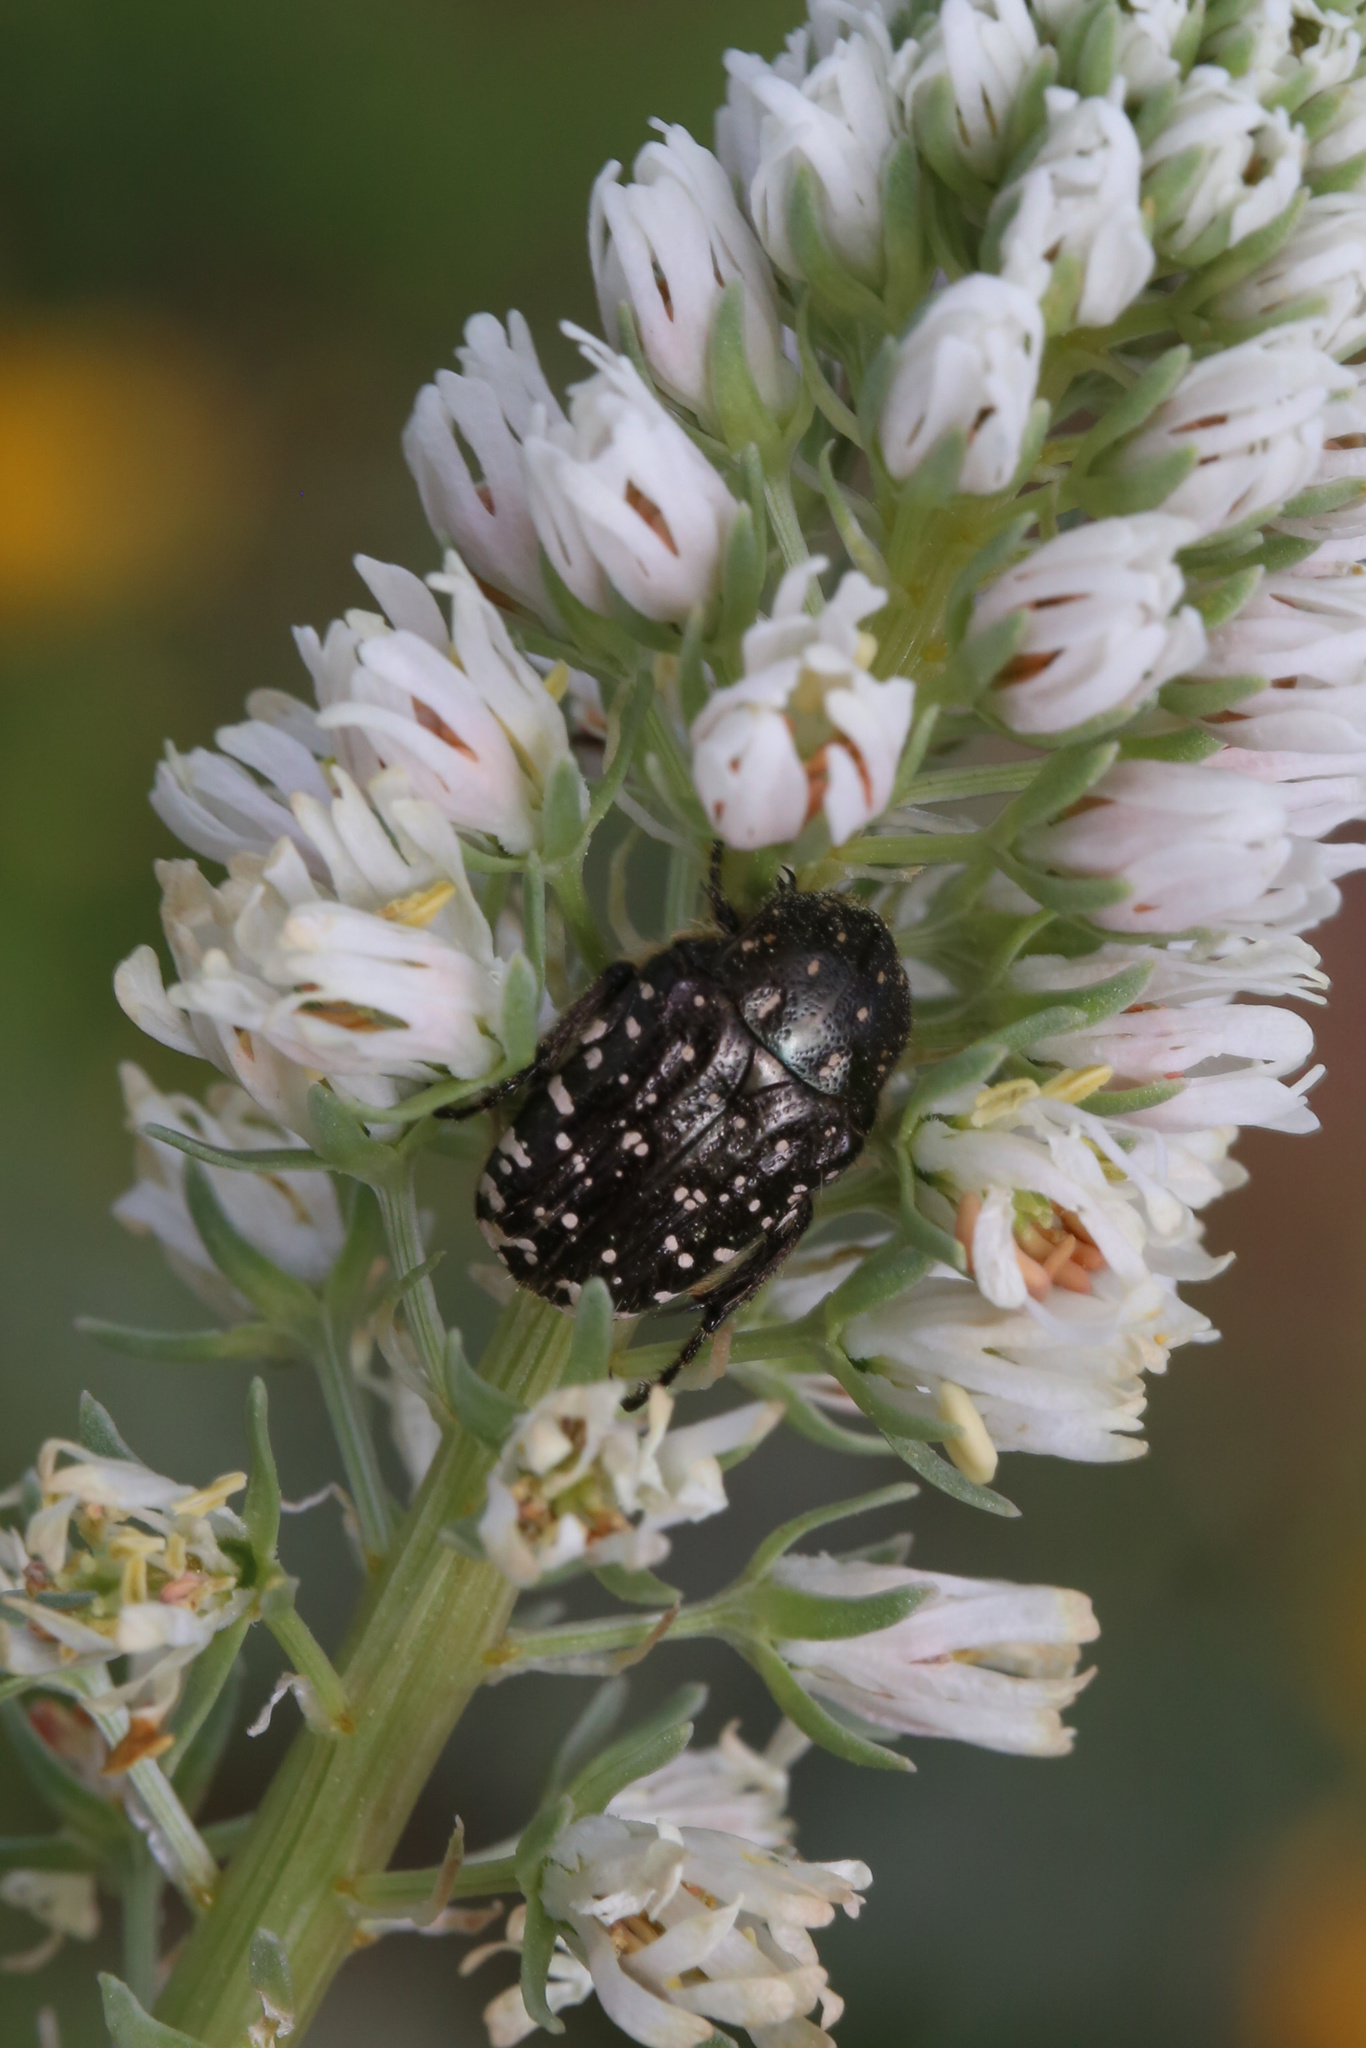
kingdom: Animalia
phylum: Arthropoda
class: Insecta
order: Coleoptera
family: Scarabaeidae
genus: Oxythyrea
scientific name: Oxythyrea funesta
